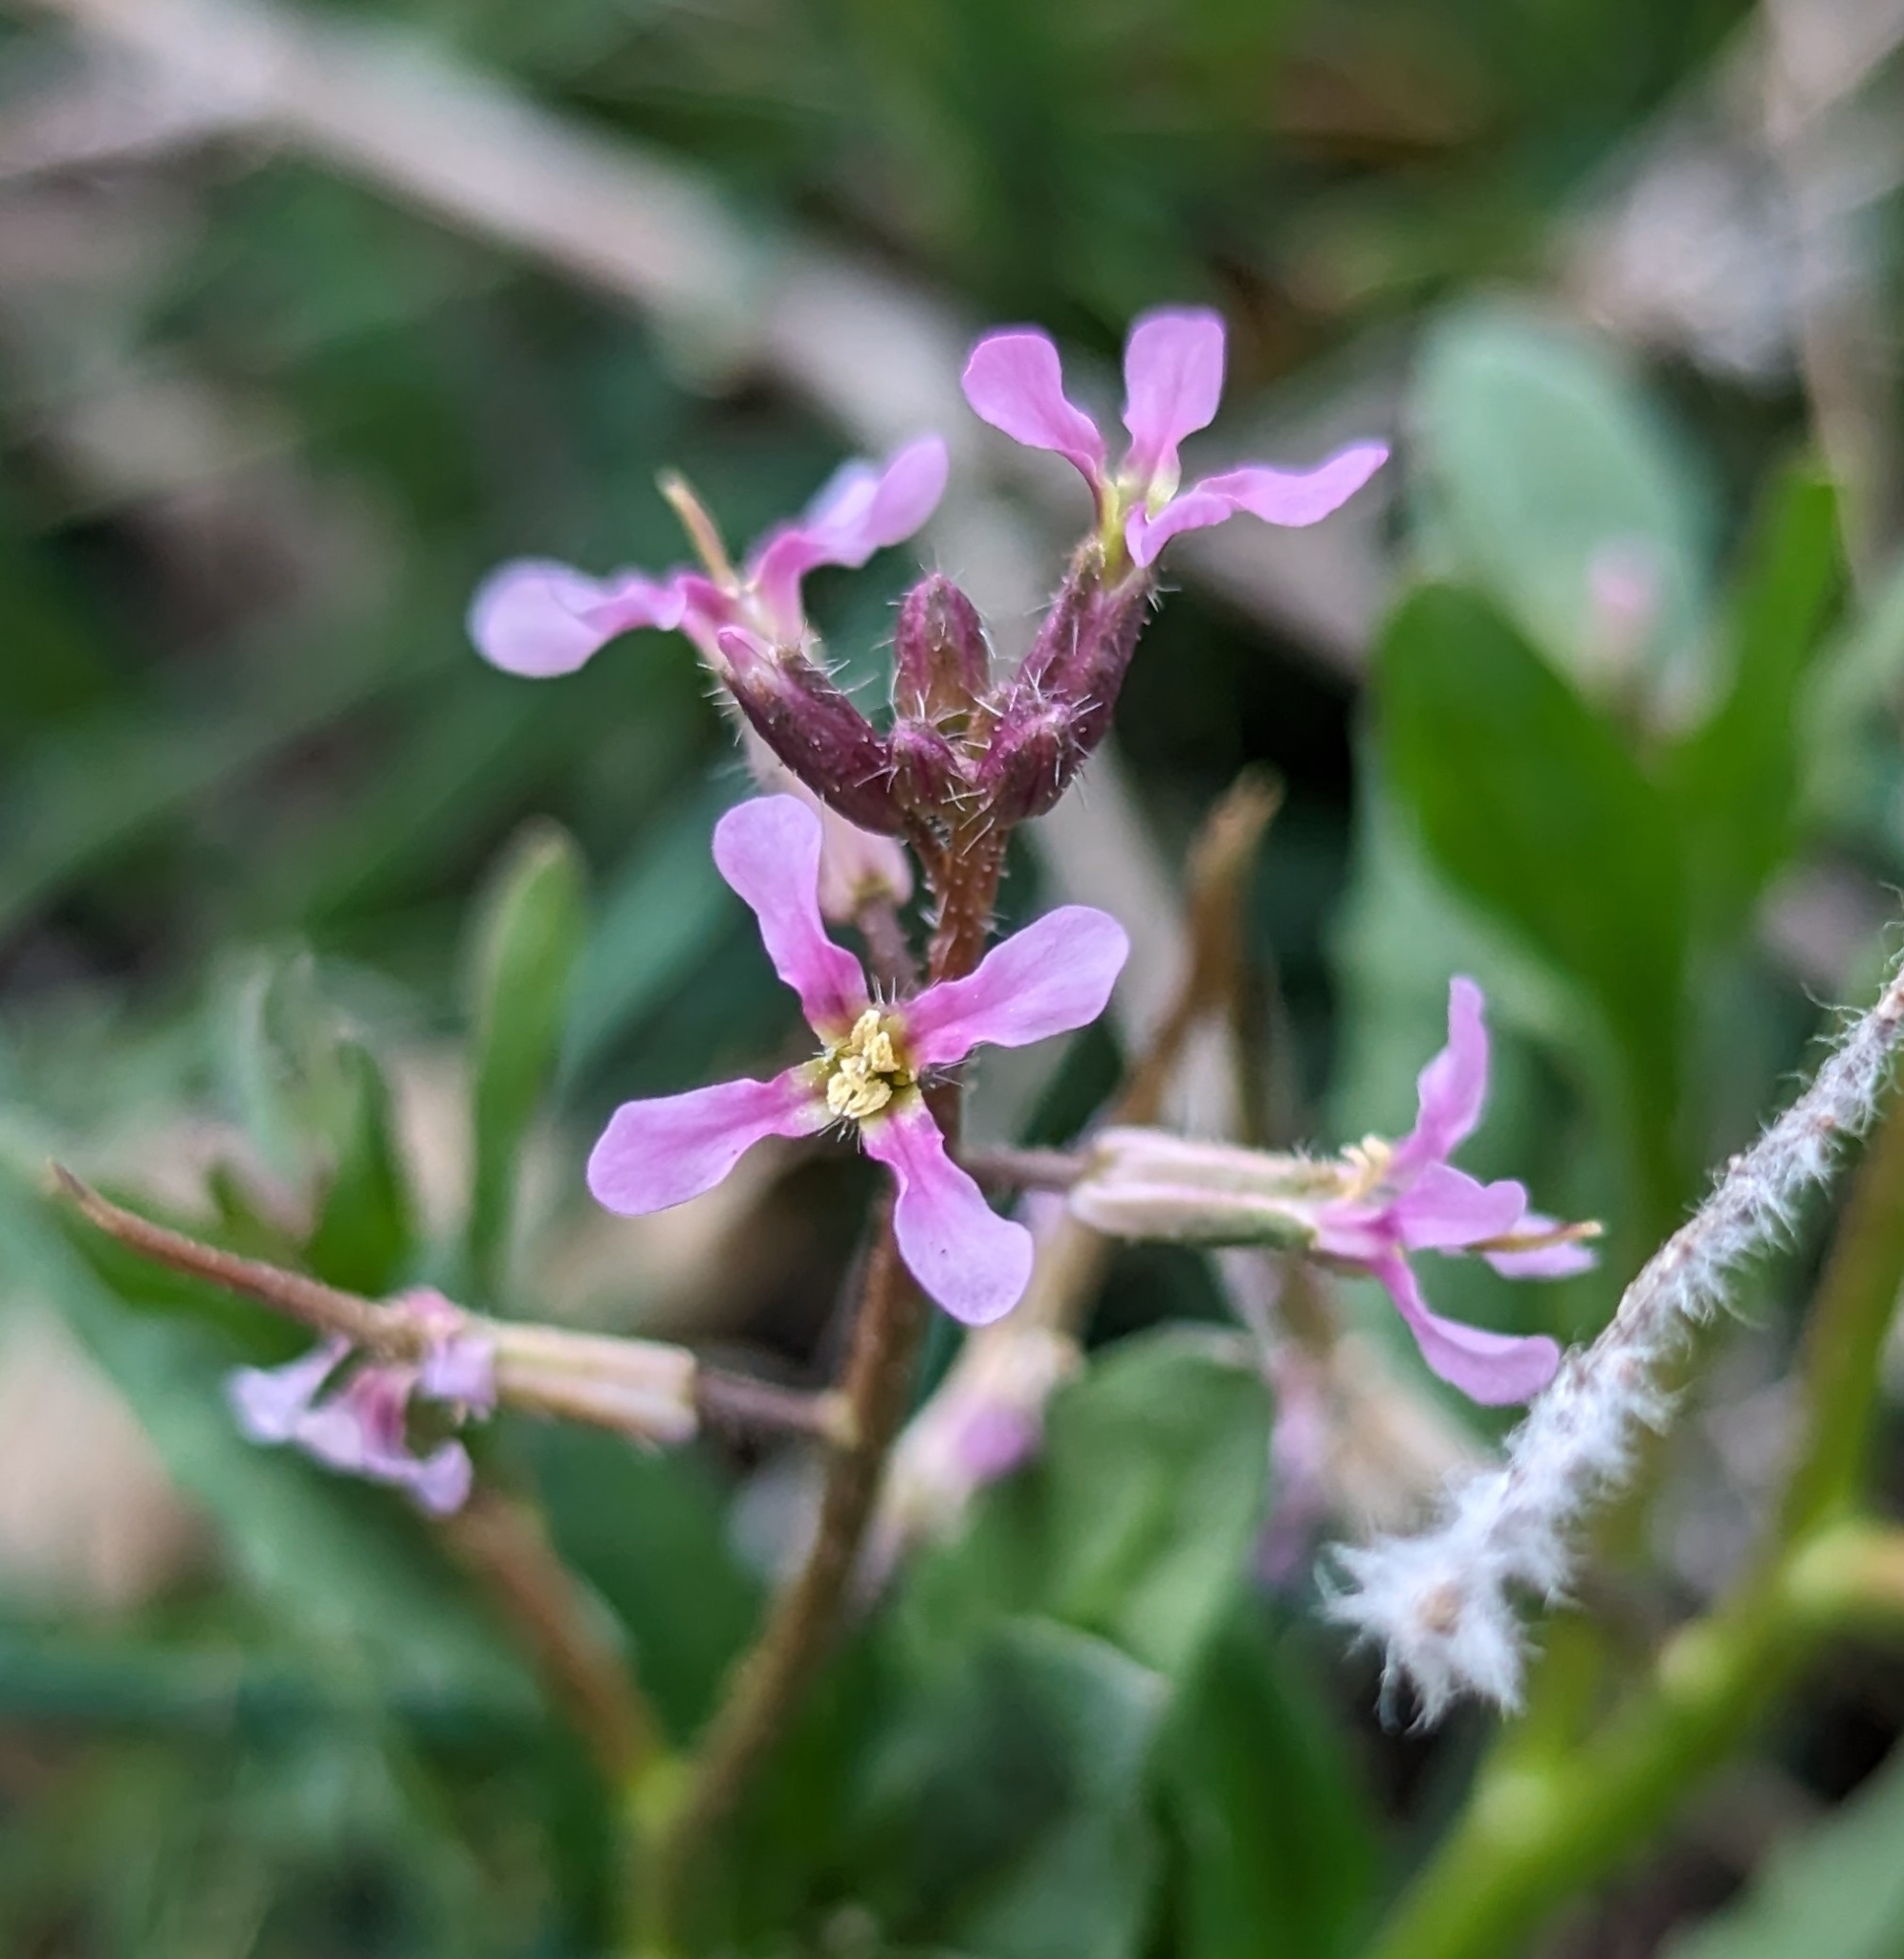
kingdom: Plantae
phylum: Tracheophyta
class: Magnoliopsida
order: Brassicales
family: Brassicaceae
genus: Chorispora
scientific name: Chorispora tenella
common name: Crossflower
